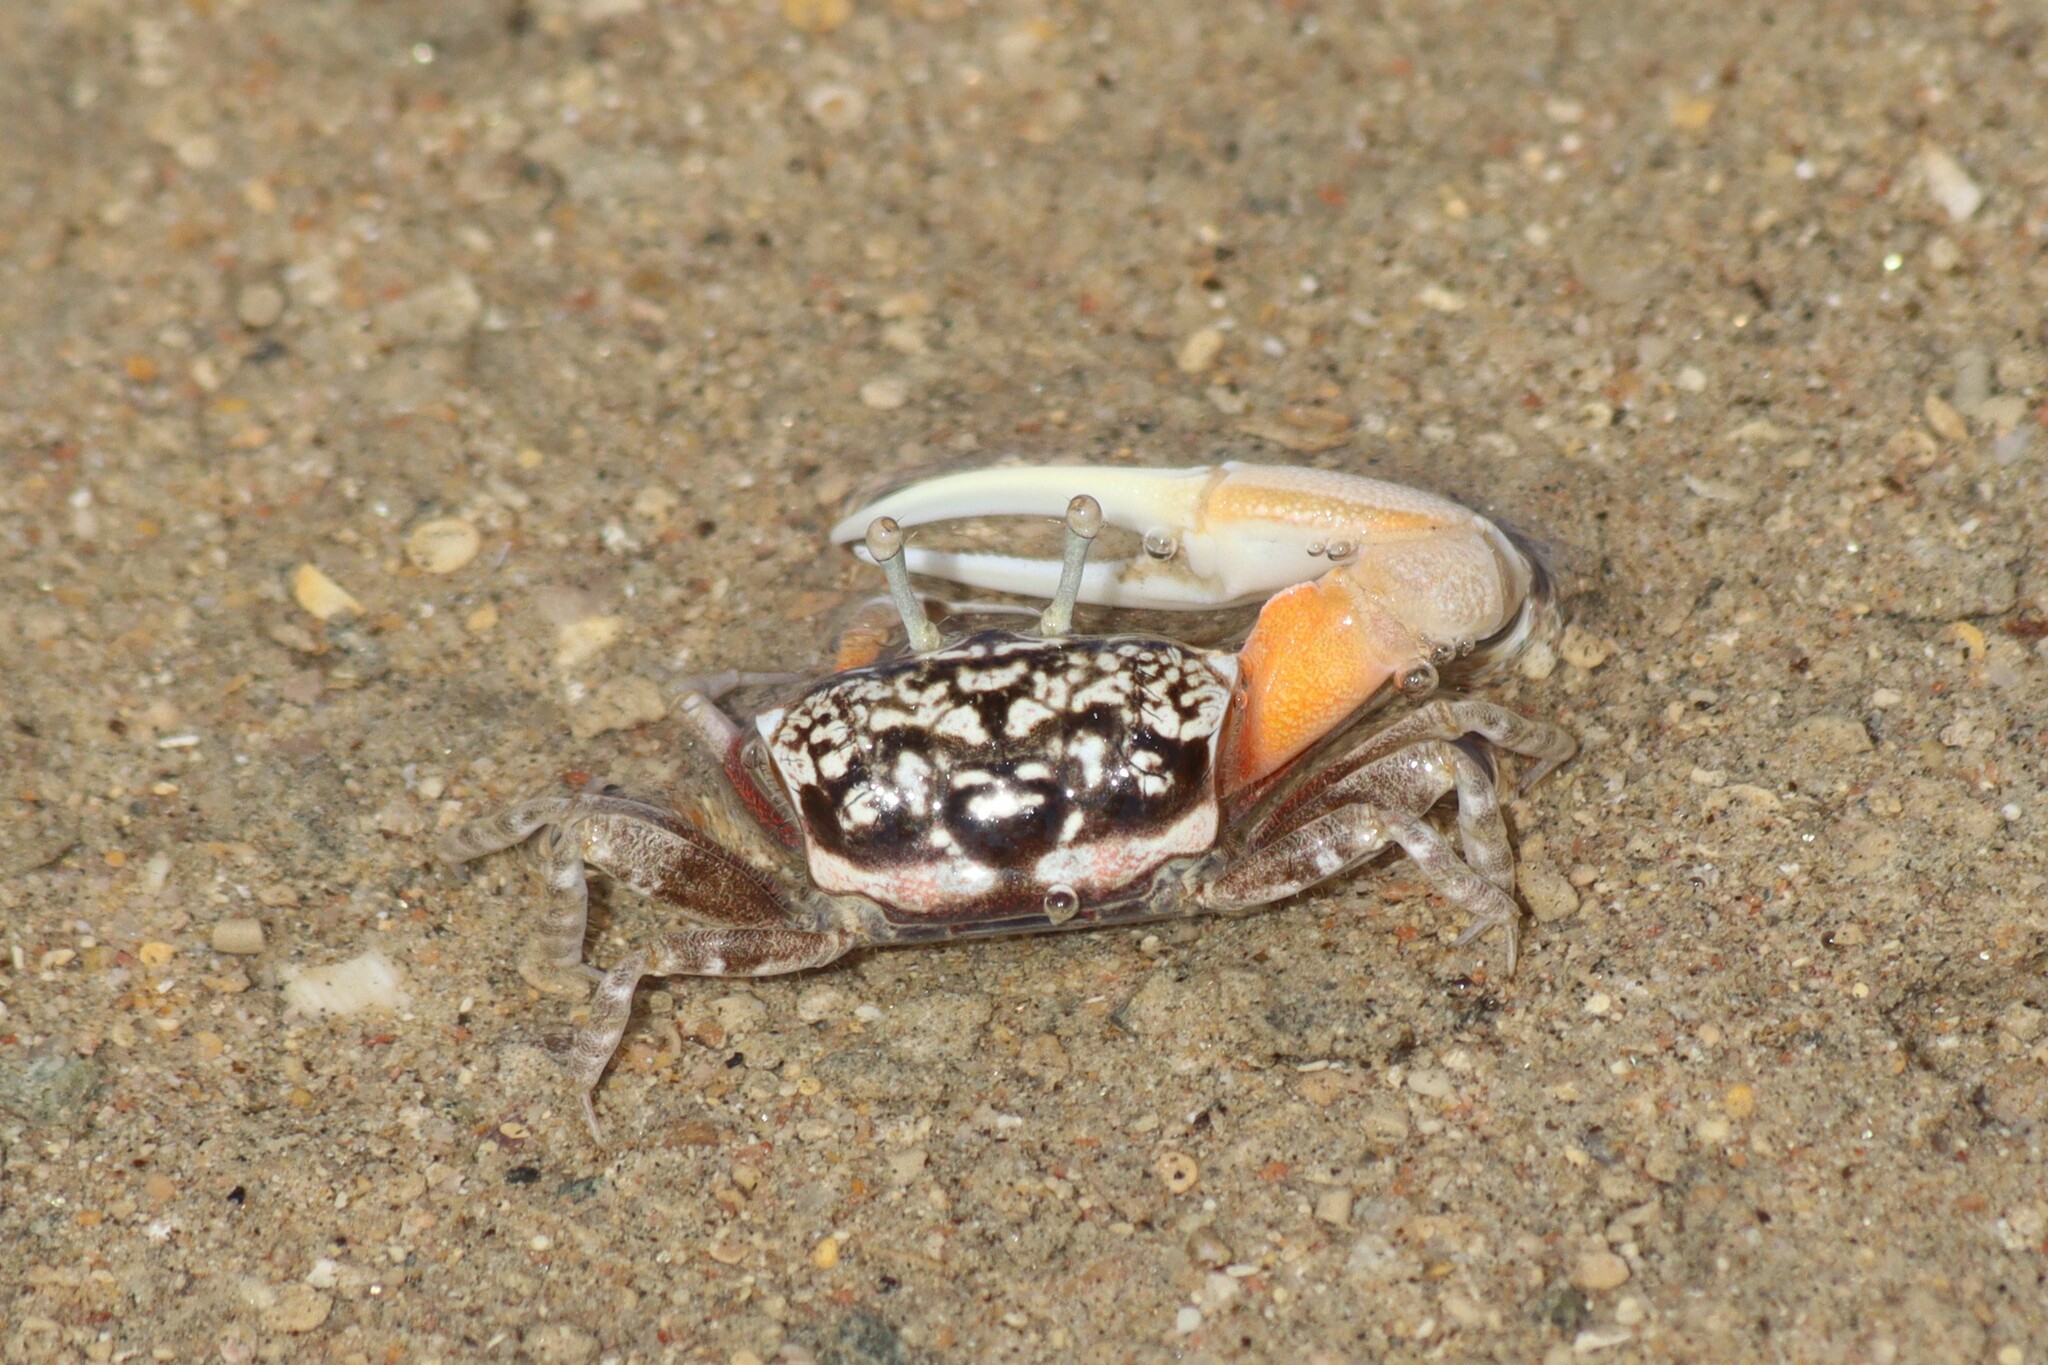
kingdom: Animalia
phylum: Arthropoda
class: Malacostraca
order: Decapoda
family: Ocypodidae
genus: Cranuca
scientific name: Cranuca inversa
